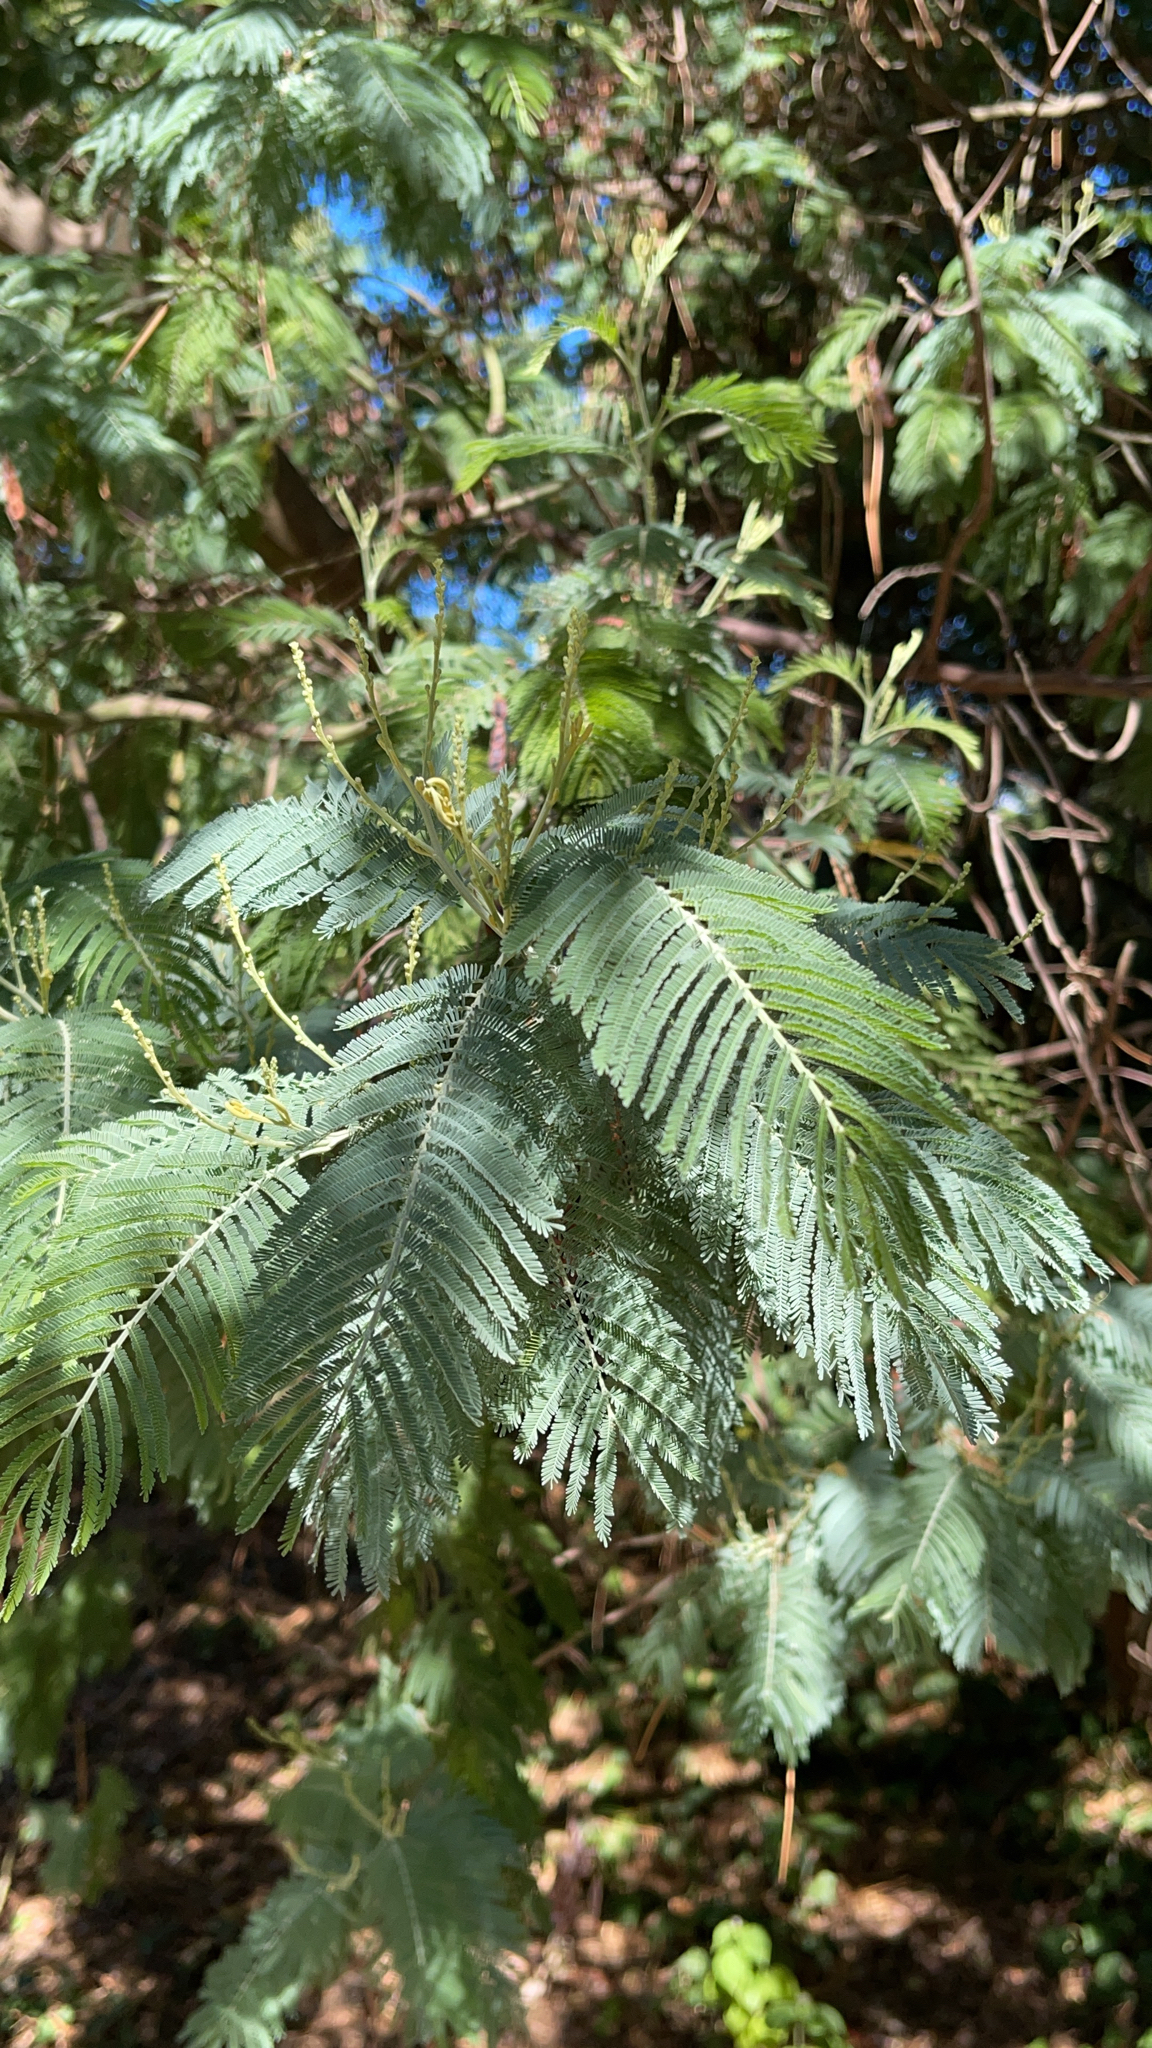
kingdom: Plantae
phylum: Tracheophyta
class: Magnoliopsida
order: Fabales
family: Fabaceae
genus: Acacia
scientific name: Acacia dealbata
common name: Silver wattle
